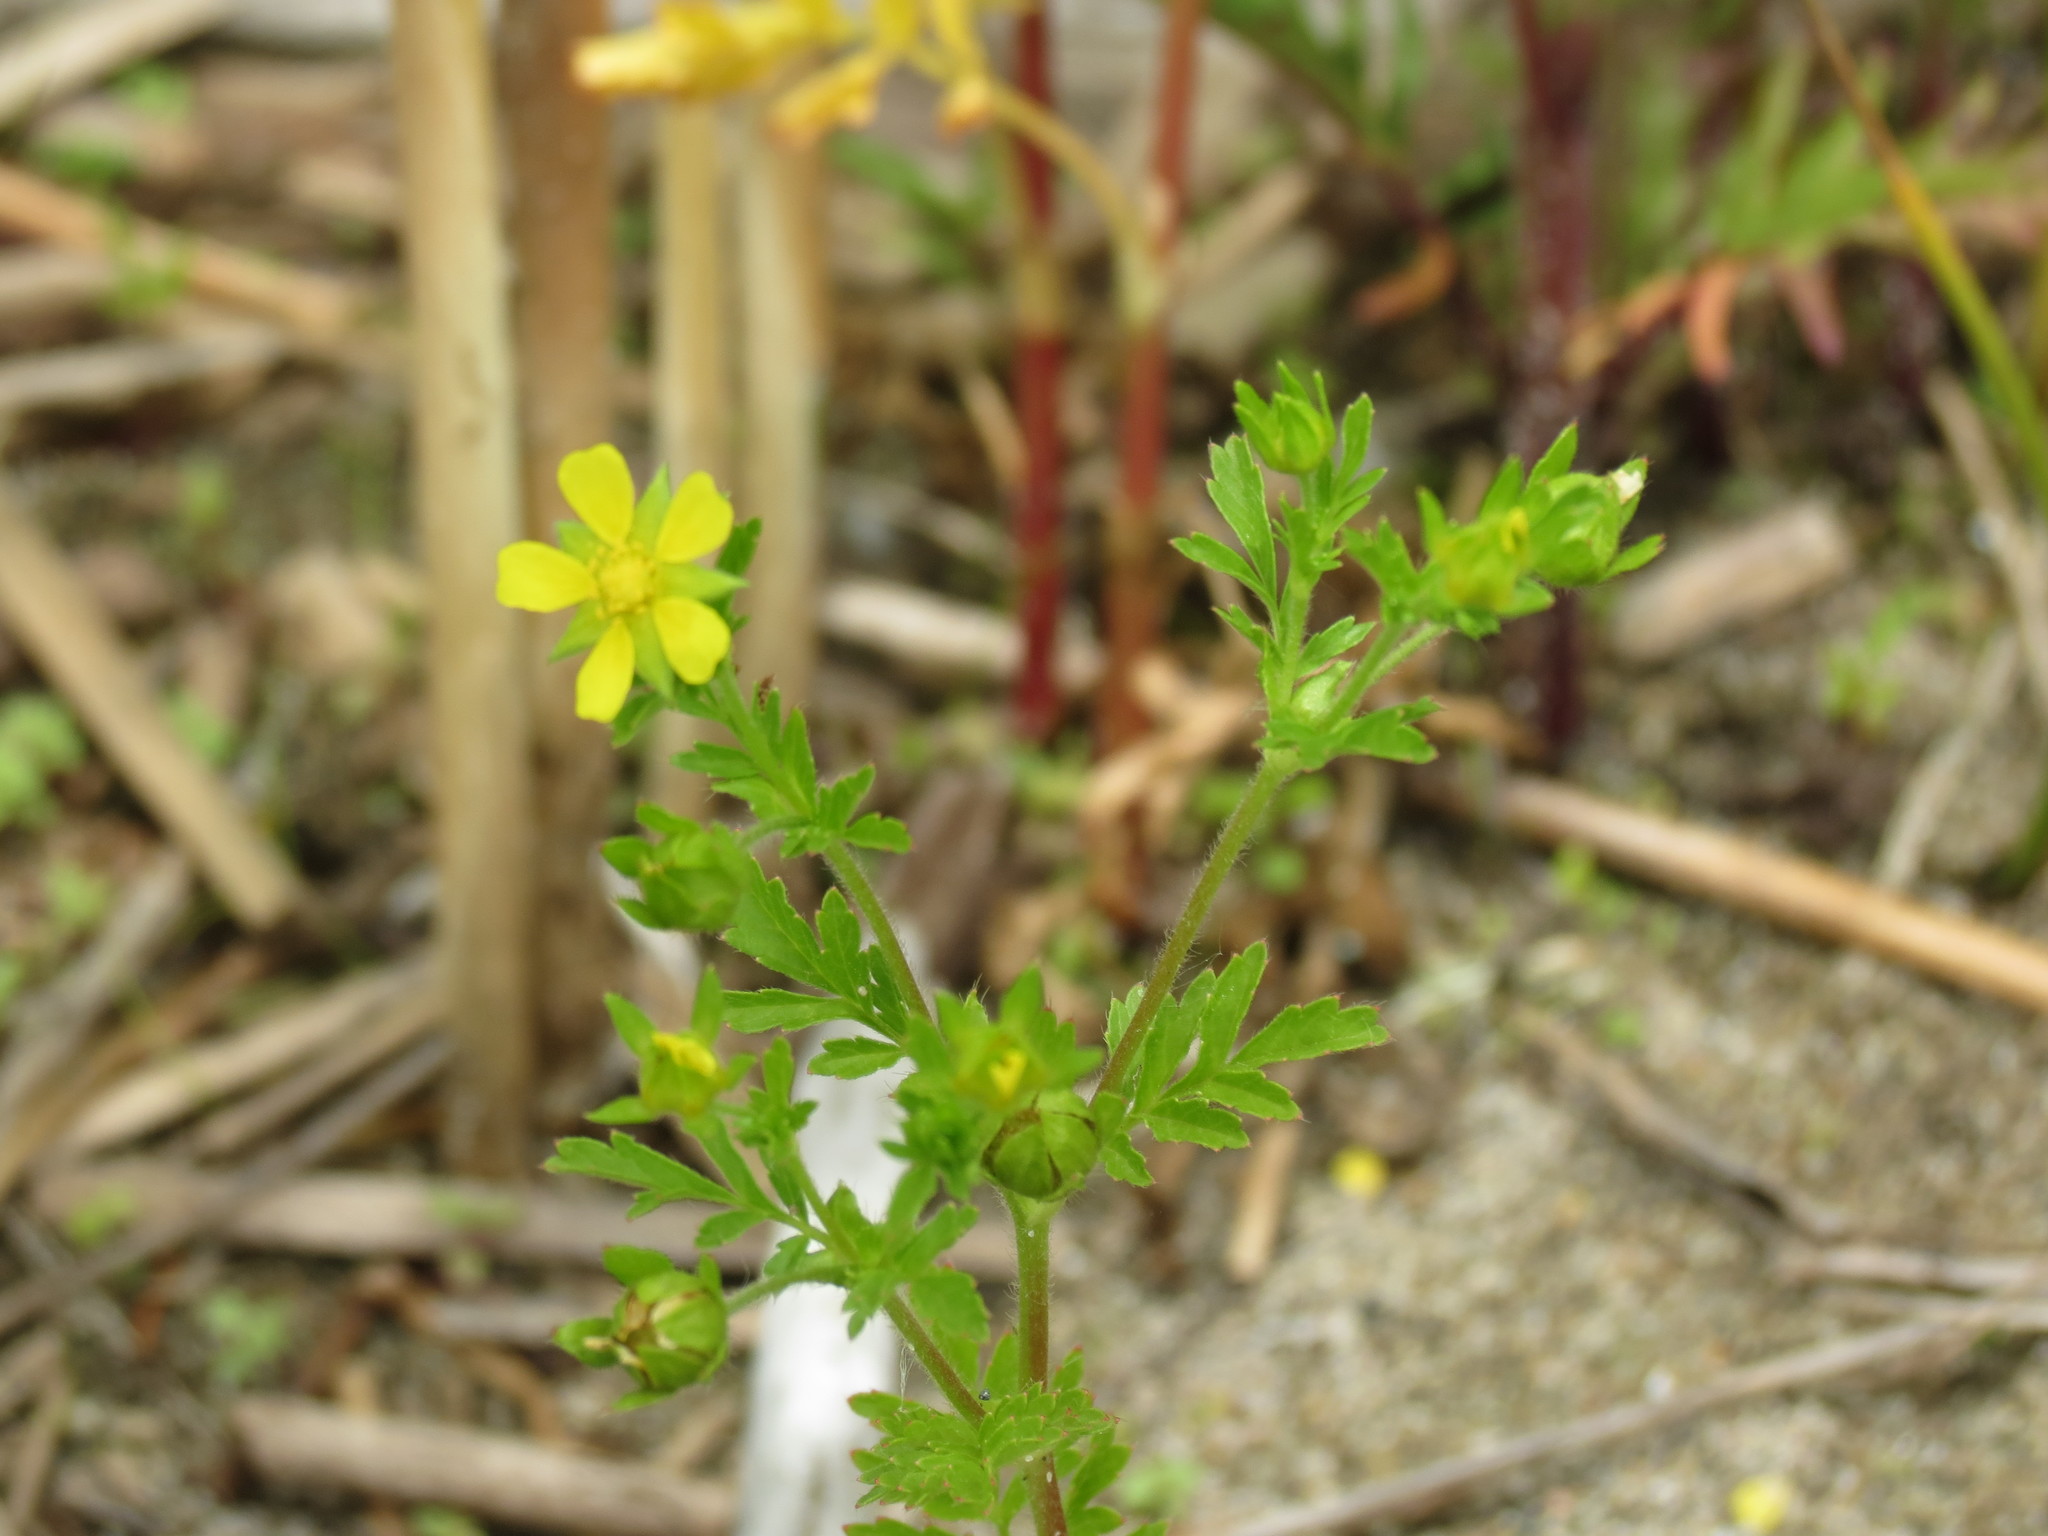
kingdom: Plantae
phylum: Tracheophyta
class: Magnoliopsida
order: Rosales
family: Rosaceae
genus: Potentilla
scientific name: Potentilla supina
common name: Prostrate cinquefoil
